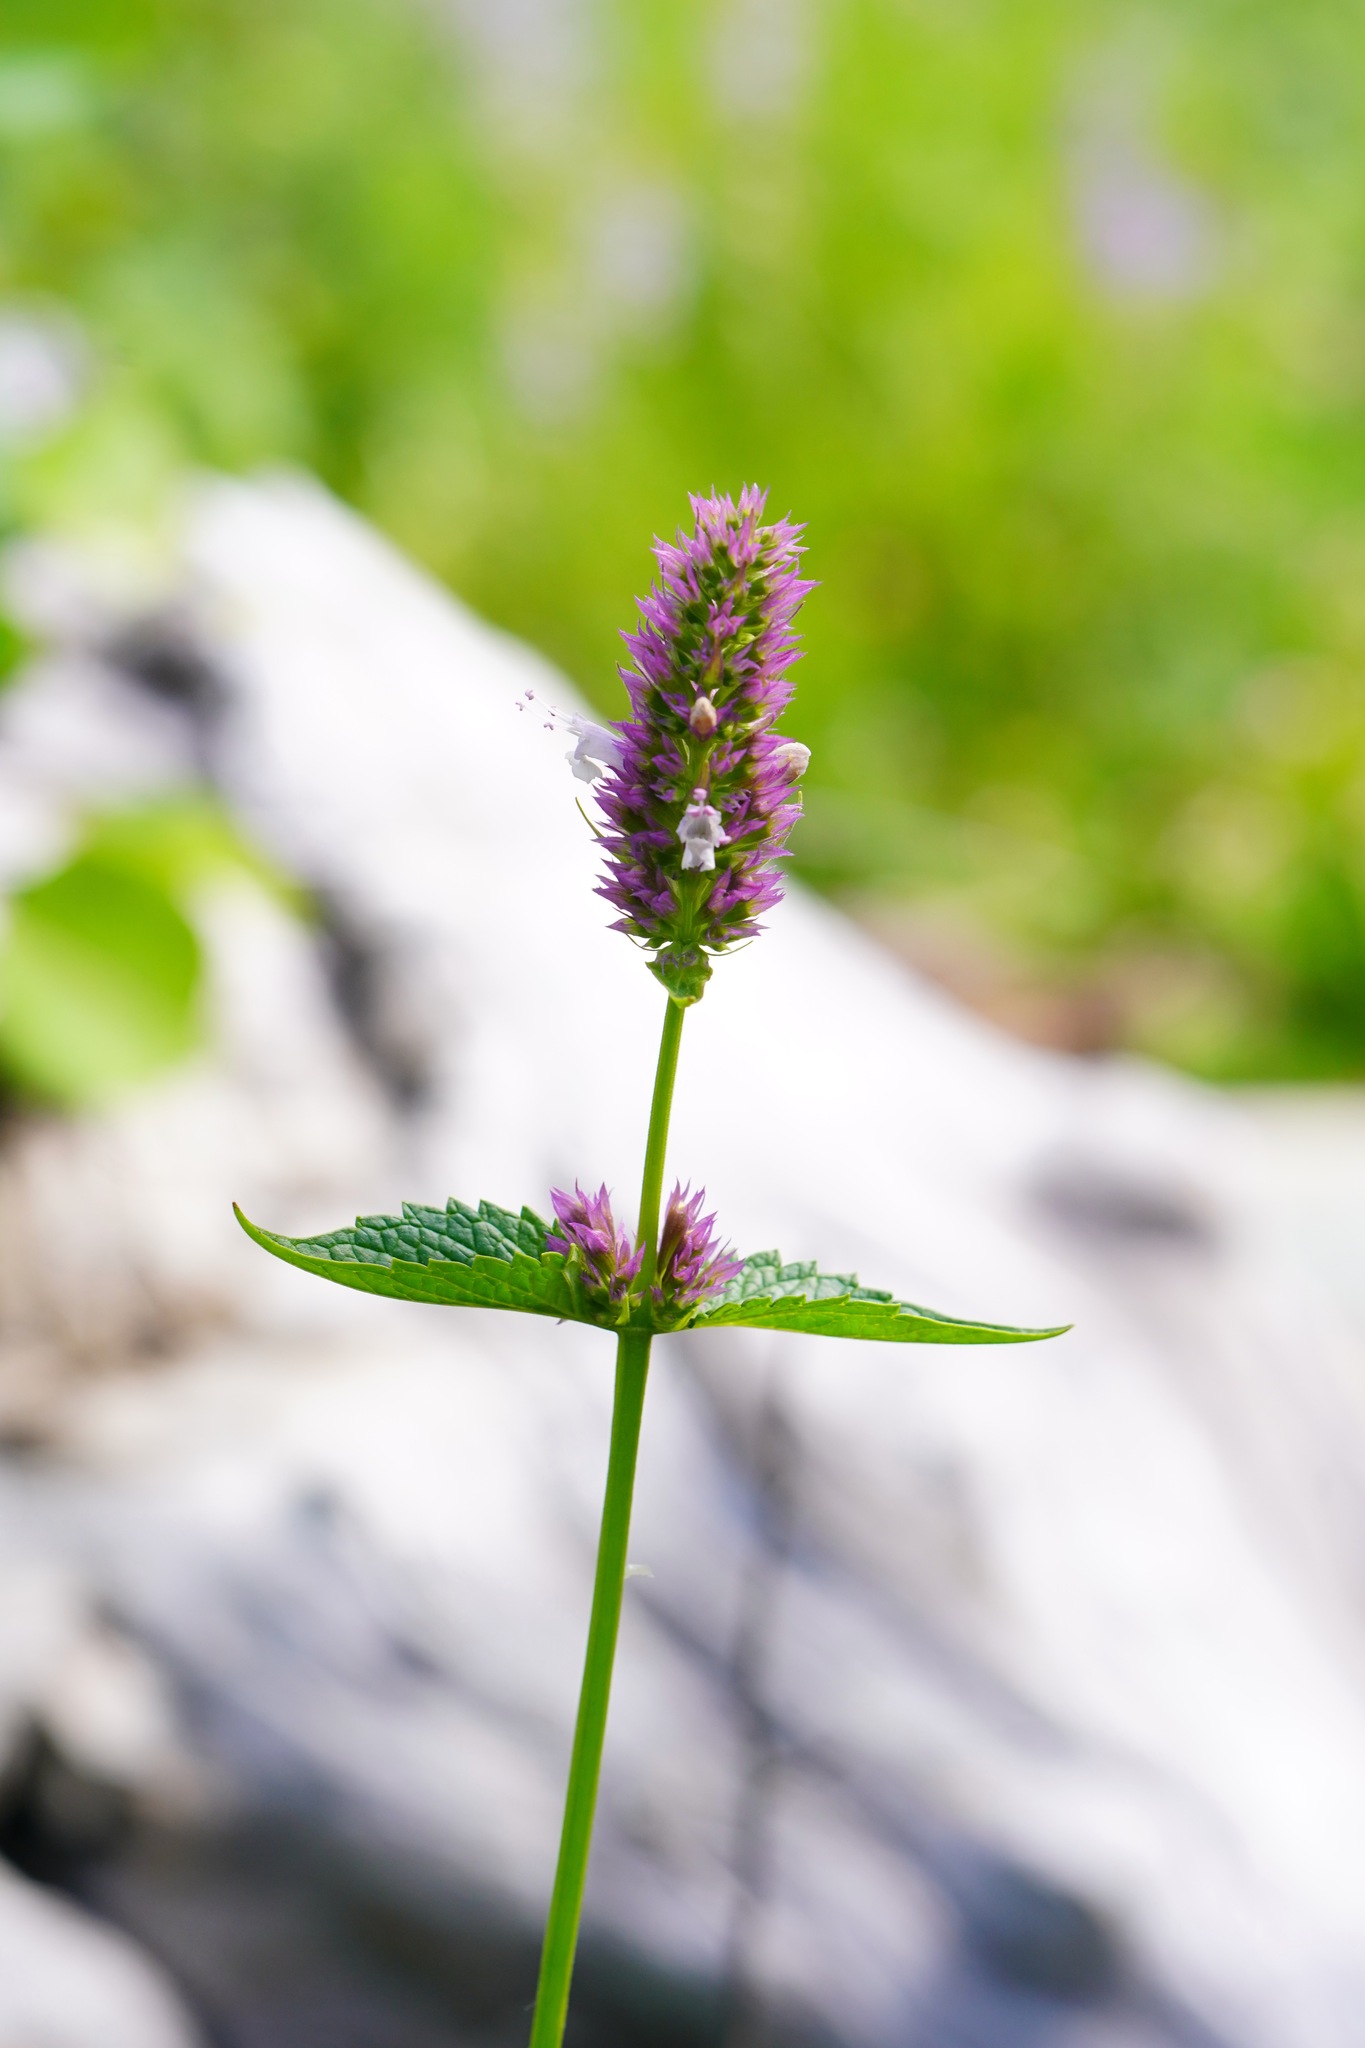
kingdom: Plantae
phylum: Tracheophyta
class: Magnoliopsida
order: Lamiales
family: Lamiaceae
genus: Agastache
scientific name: Agastache urticifolia
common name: Horsemint giant hyssop
